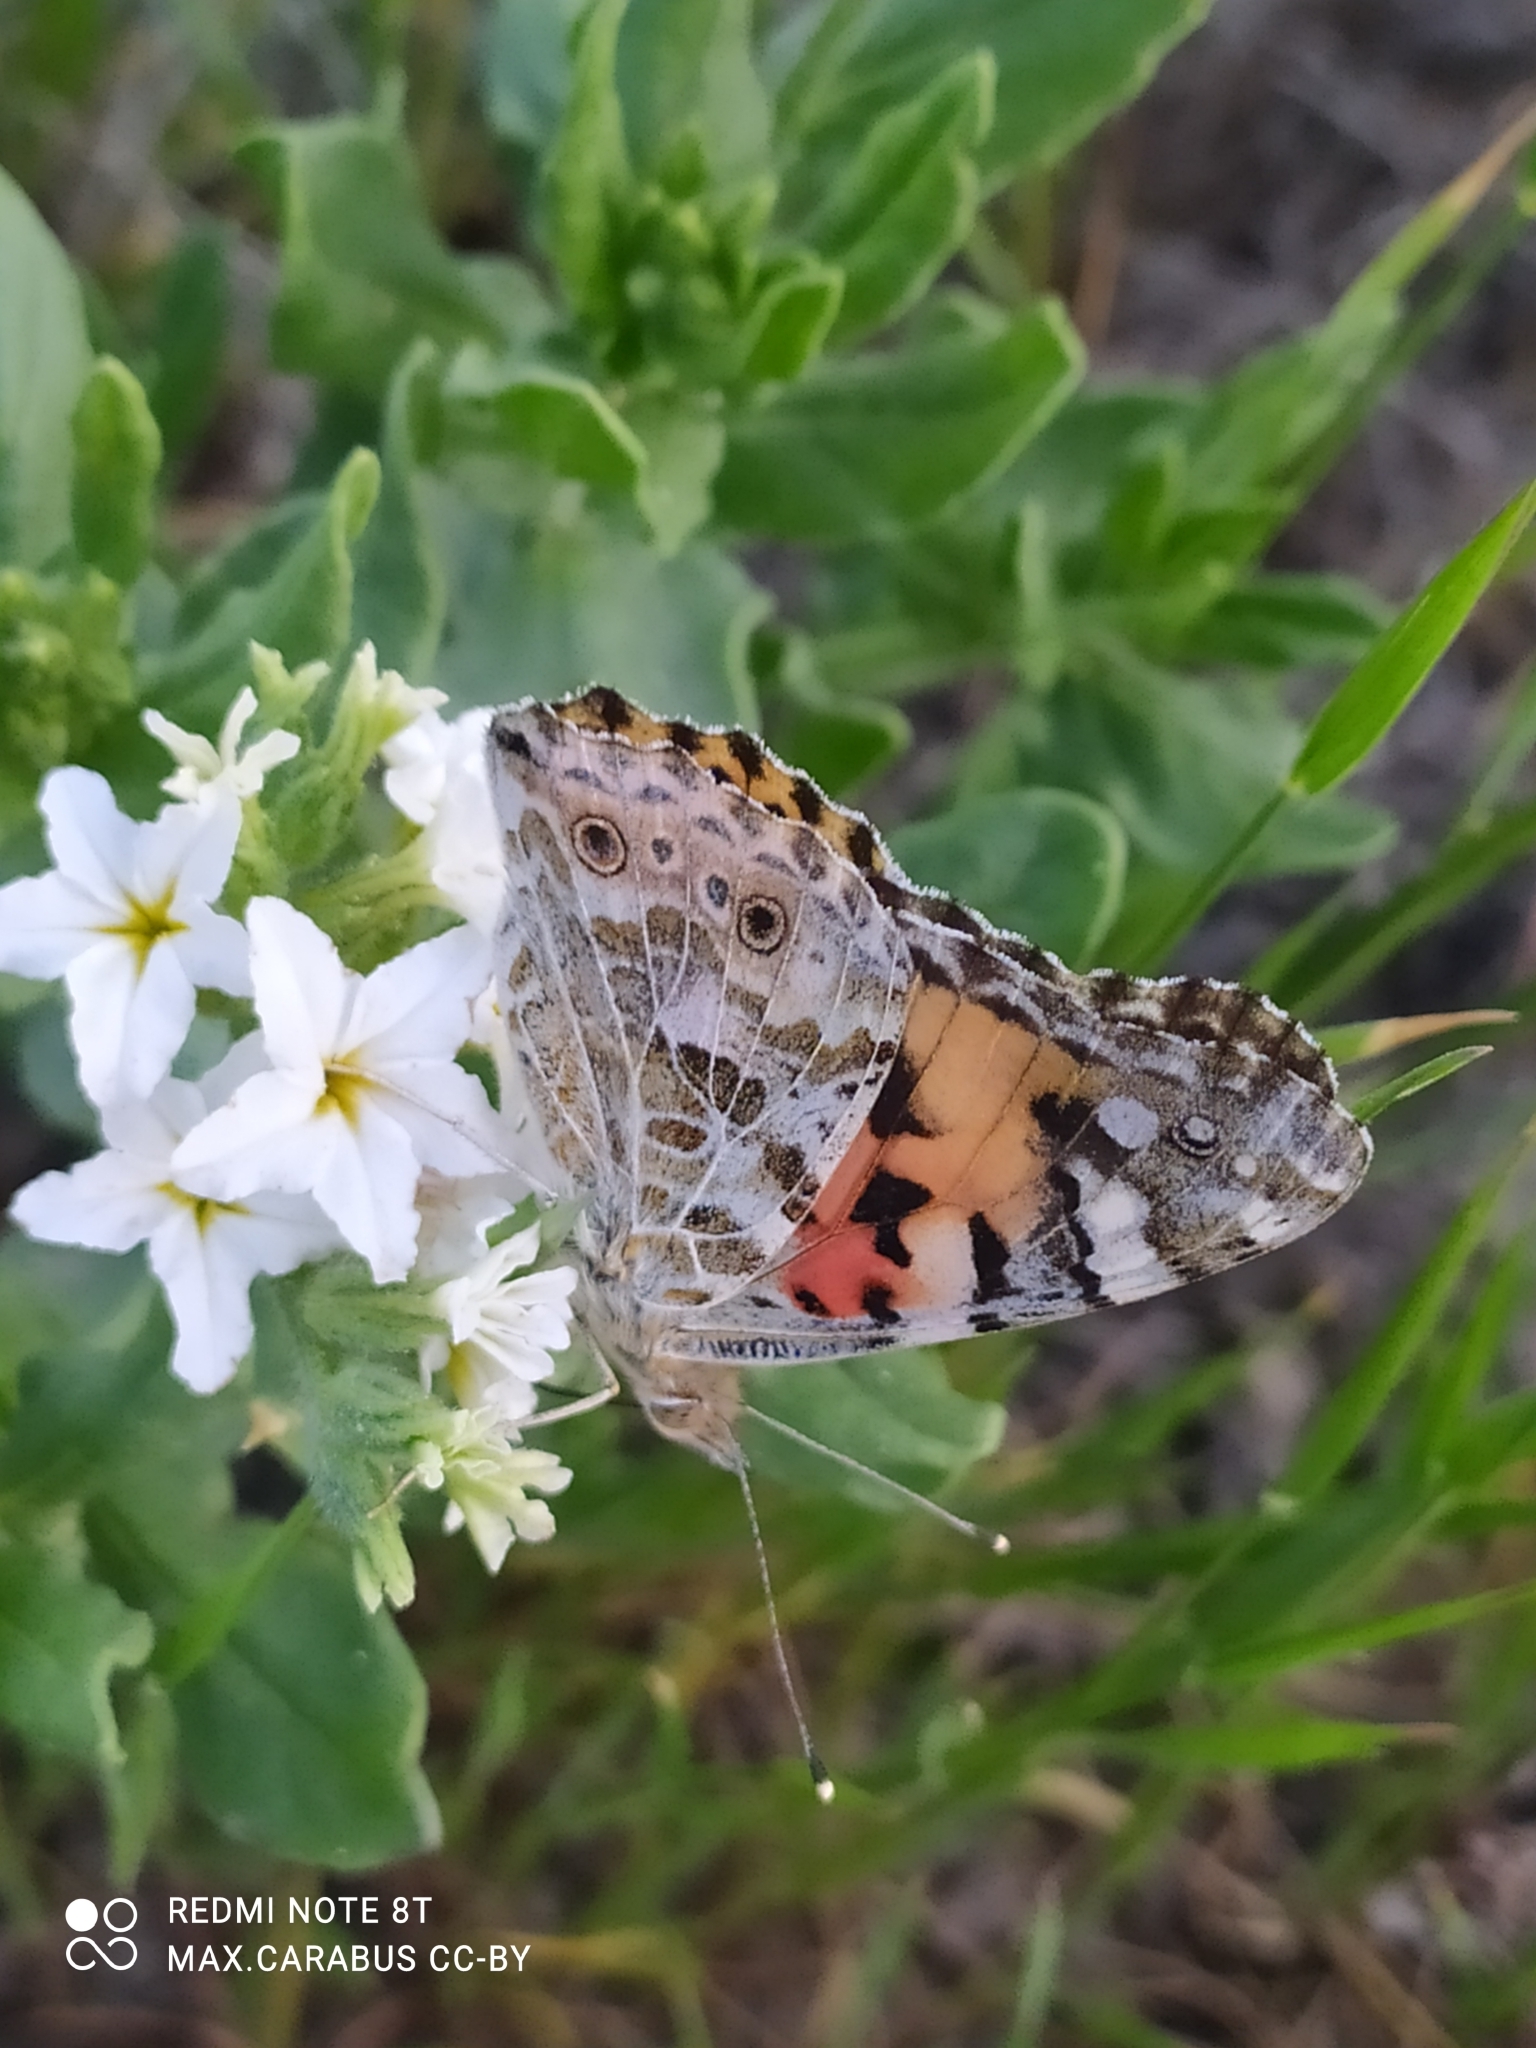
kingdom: Animalia
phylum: Arthropoda
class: Insecta
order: Lepidoptera
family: Nymphalidae
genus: Vanessa
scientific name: Vanessa cardui
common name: Painted lady
